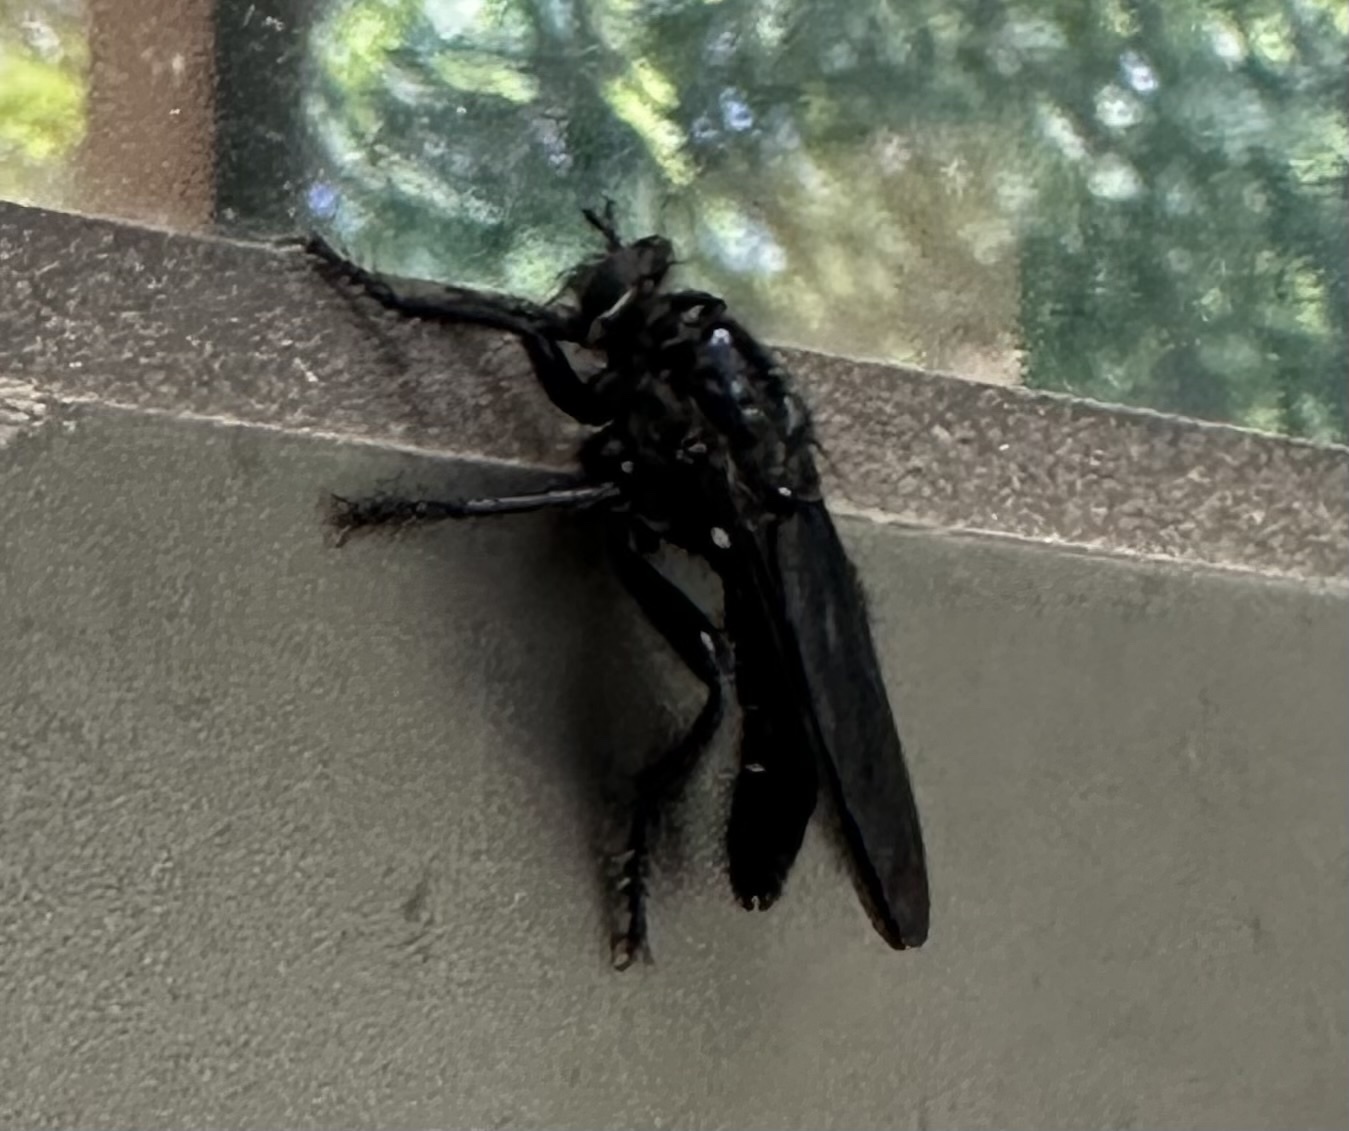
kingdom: Animalia
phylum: Arthropoda
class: Insecta
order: Diptera
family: Asilidae
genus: Orthogonis
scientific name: Orthogonis stygia
